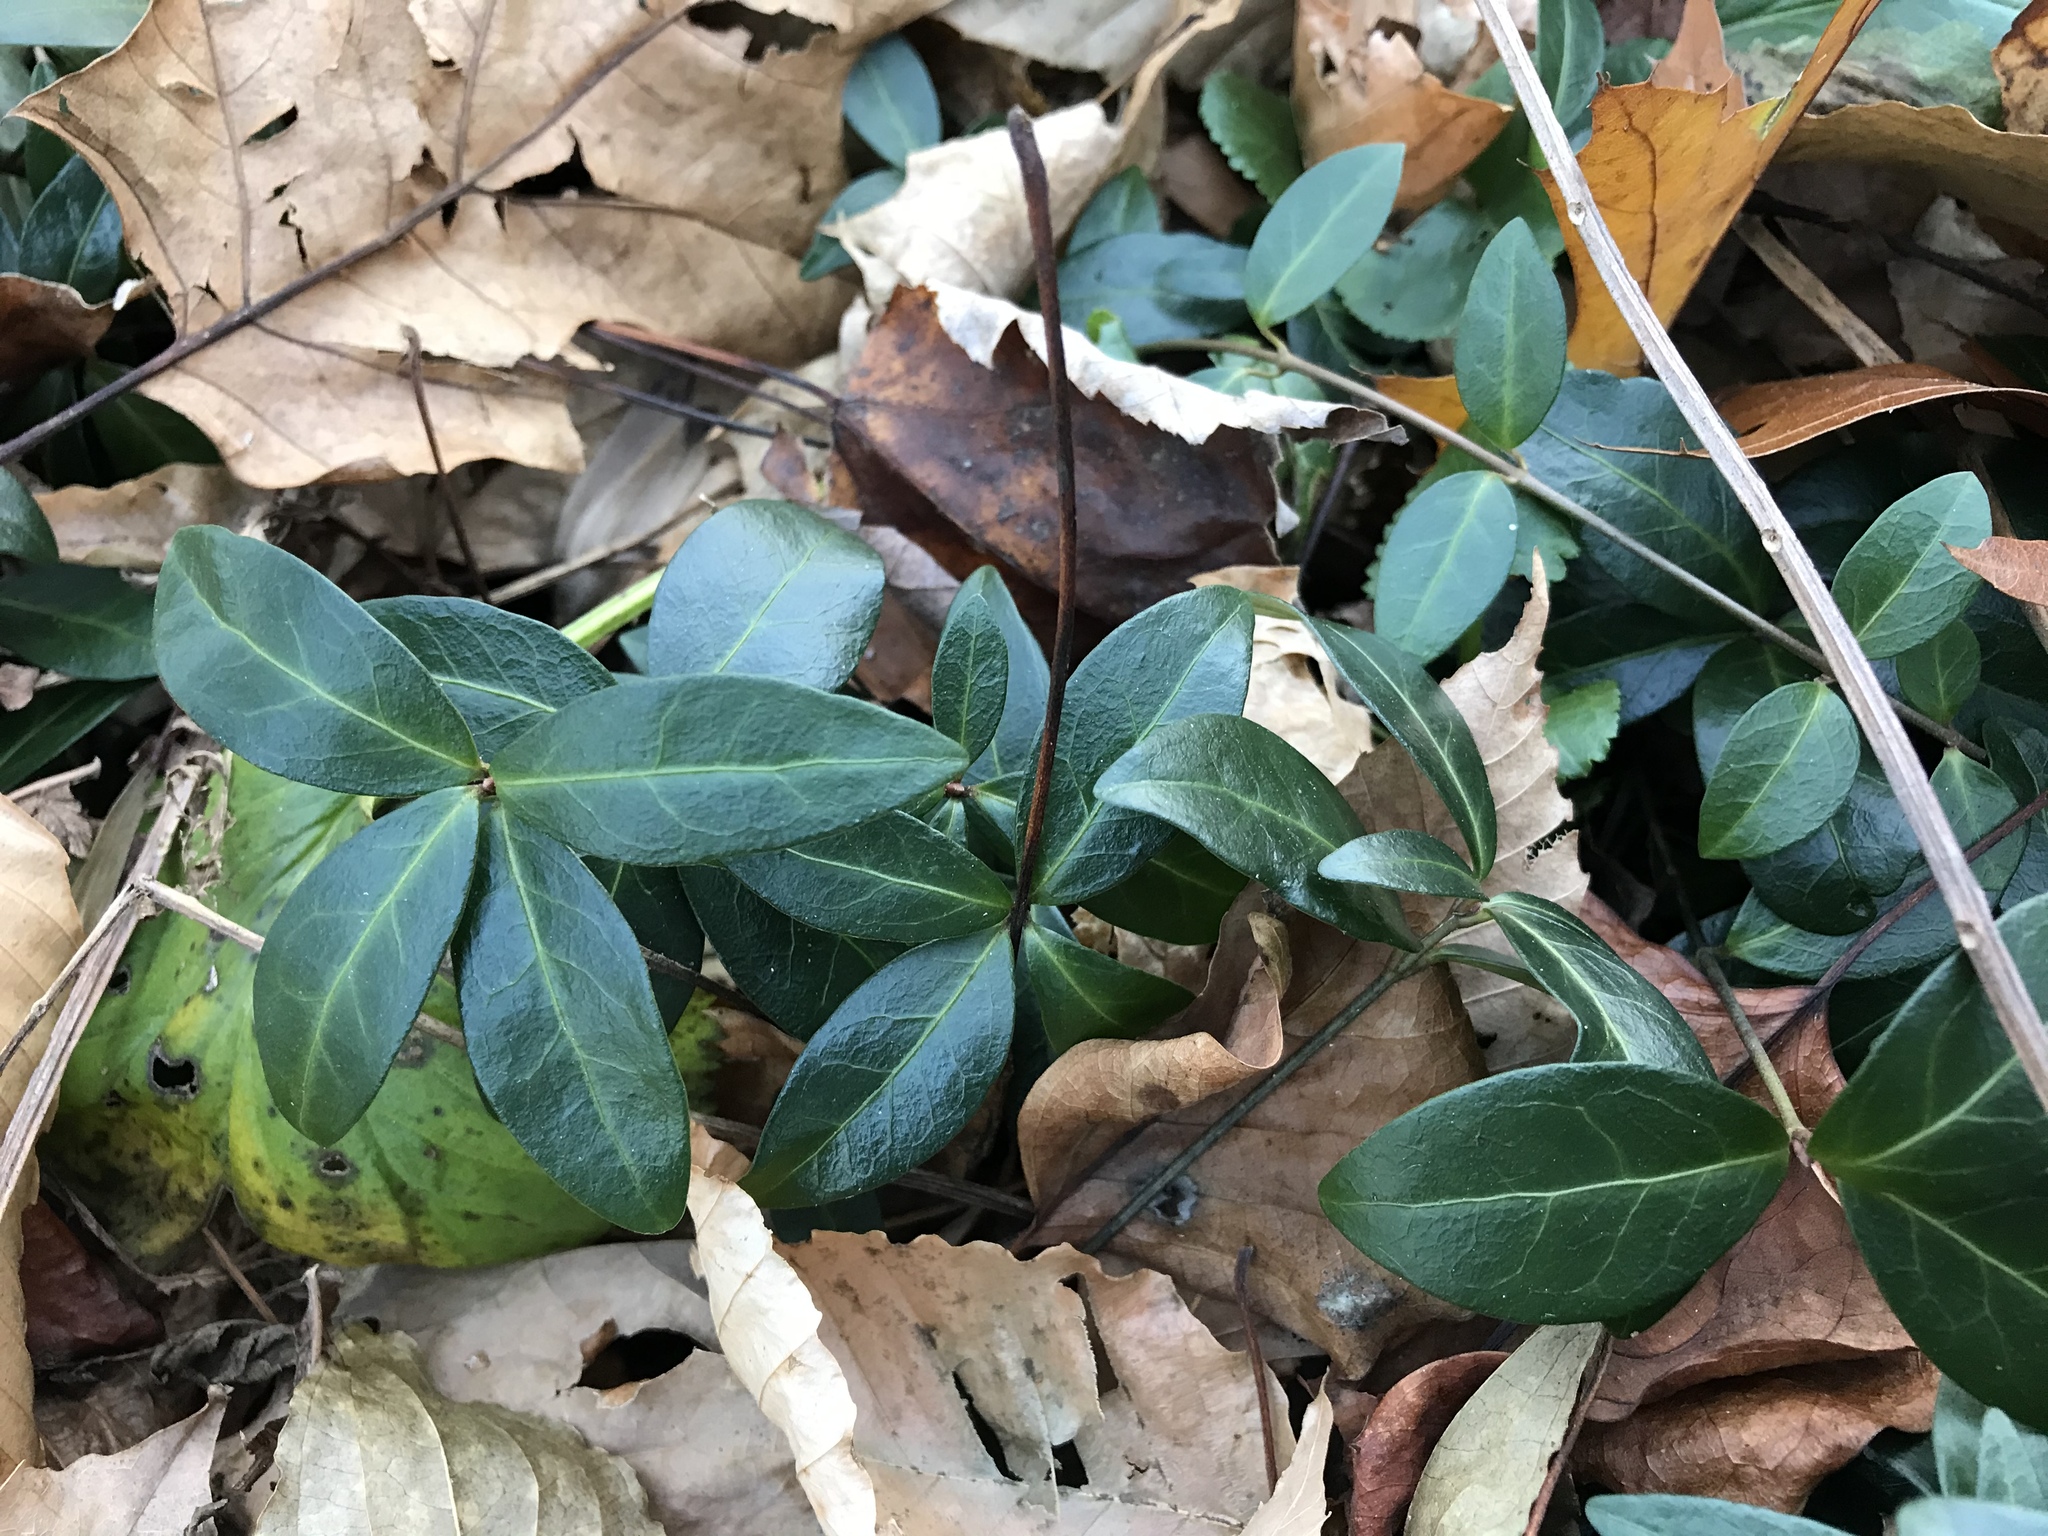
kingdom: Plantae
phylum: Tracheophyta
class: Magnoliopsida
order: Gentianales
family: Apocynaceae
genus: Vinca
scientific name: Vinca minor
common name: Lesser periwinkle
